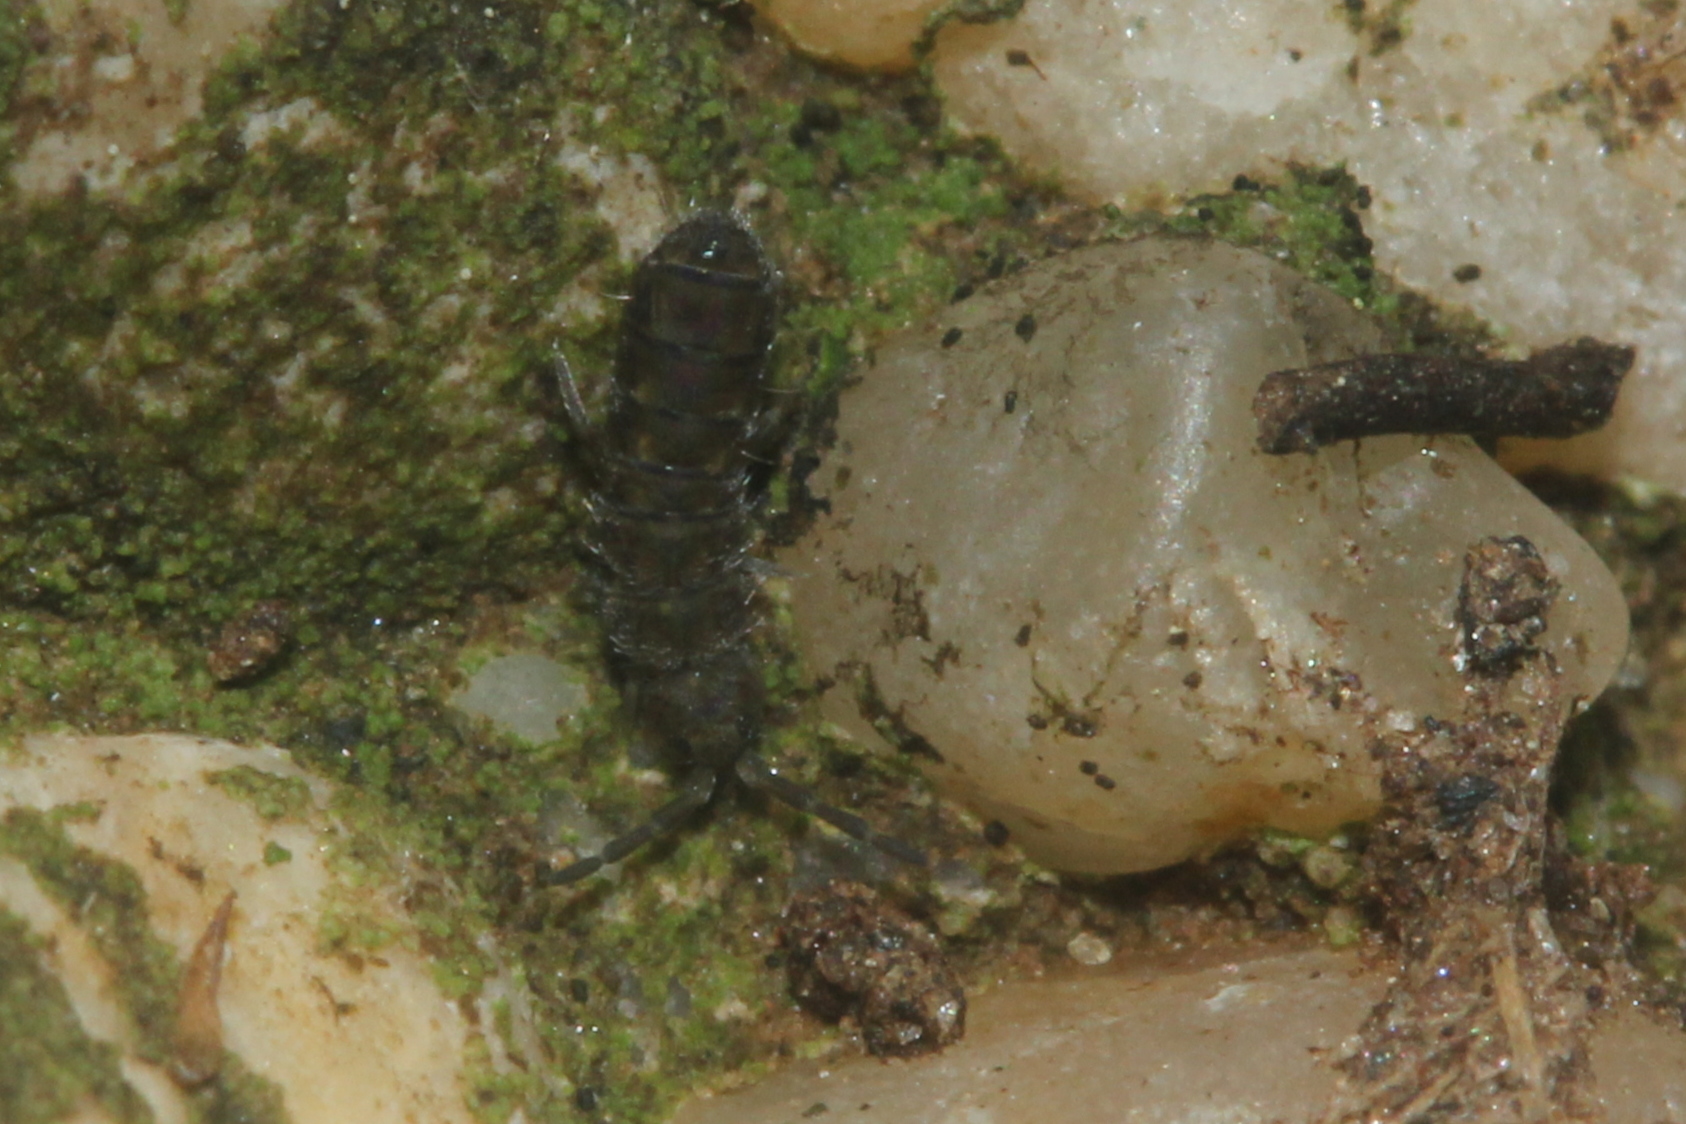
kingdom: Animalia
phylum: Arthropoda
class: Collembola
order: Entomobryomorpha
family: Isotomidae
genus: Isotoma
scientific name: Isotoma delta
